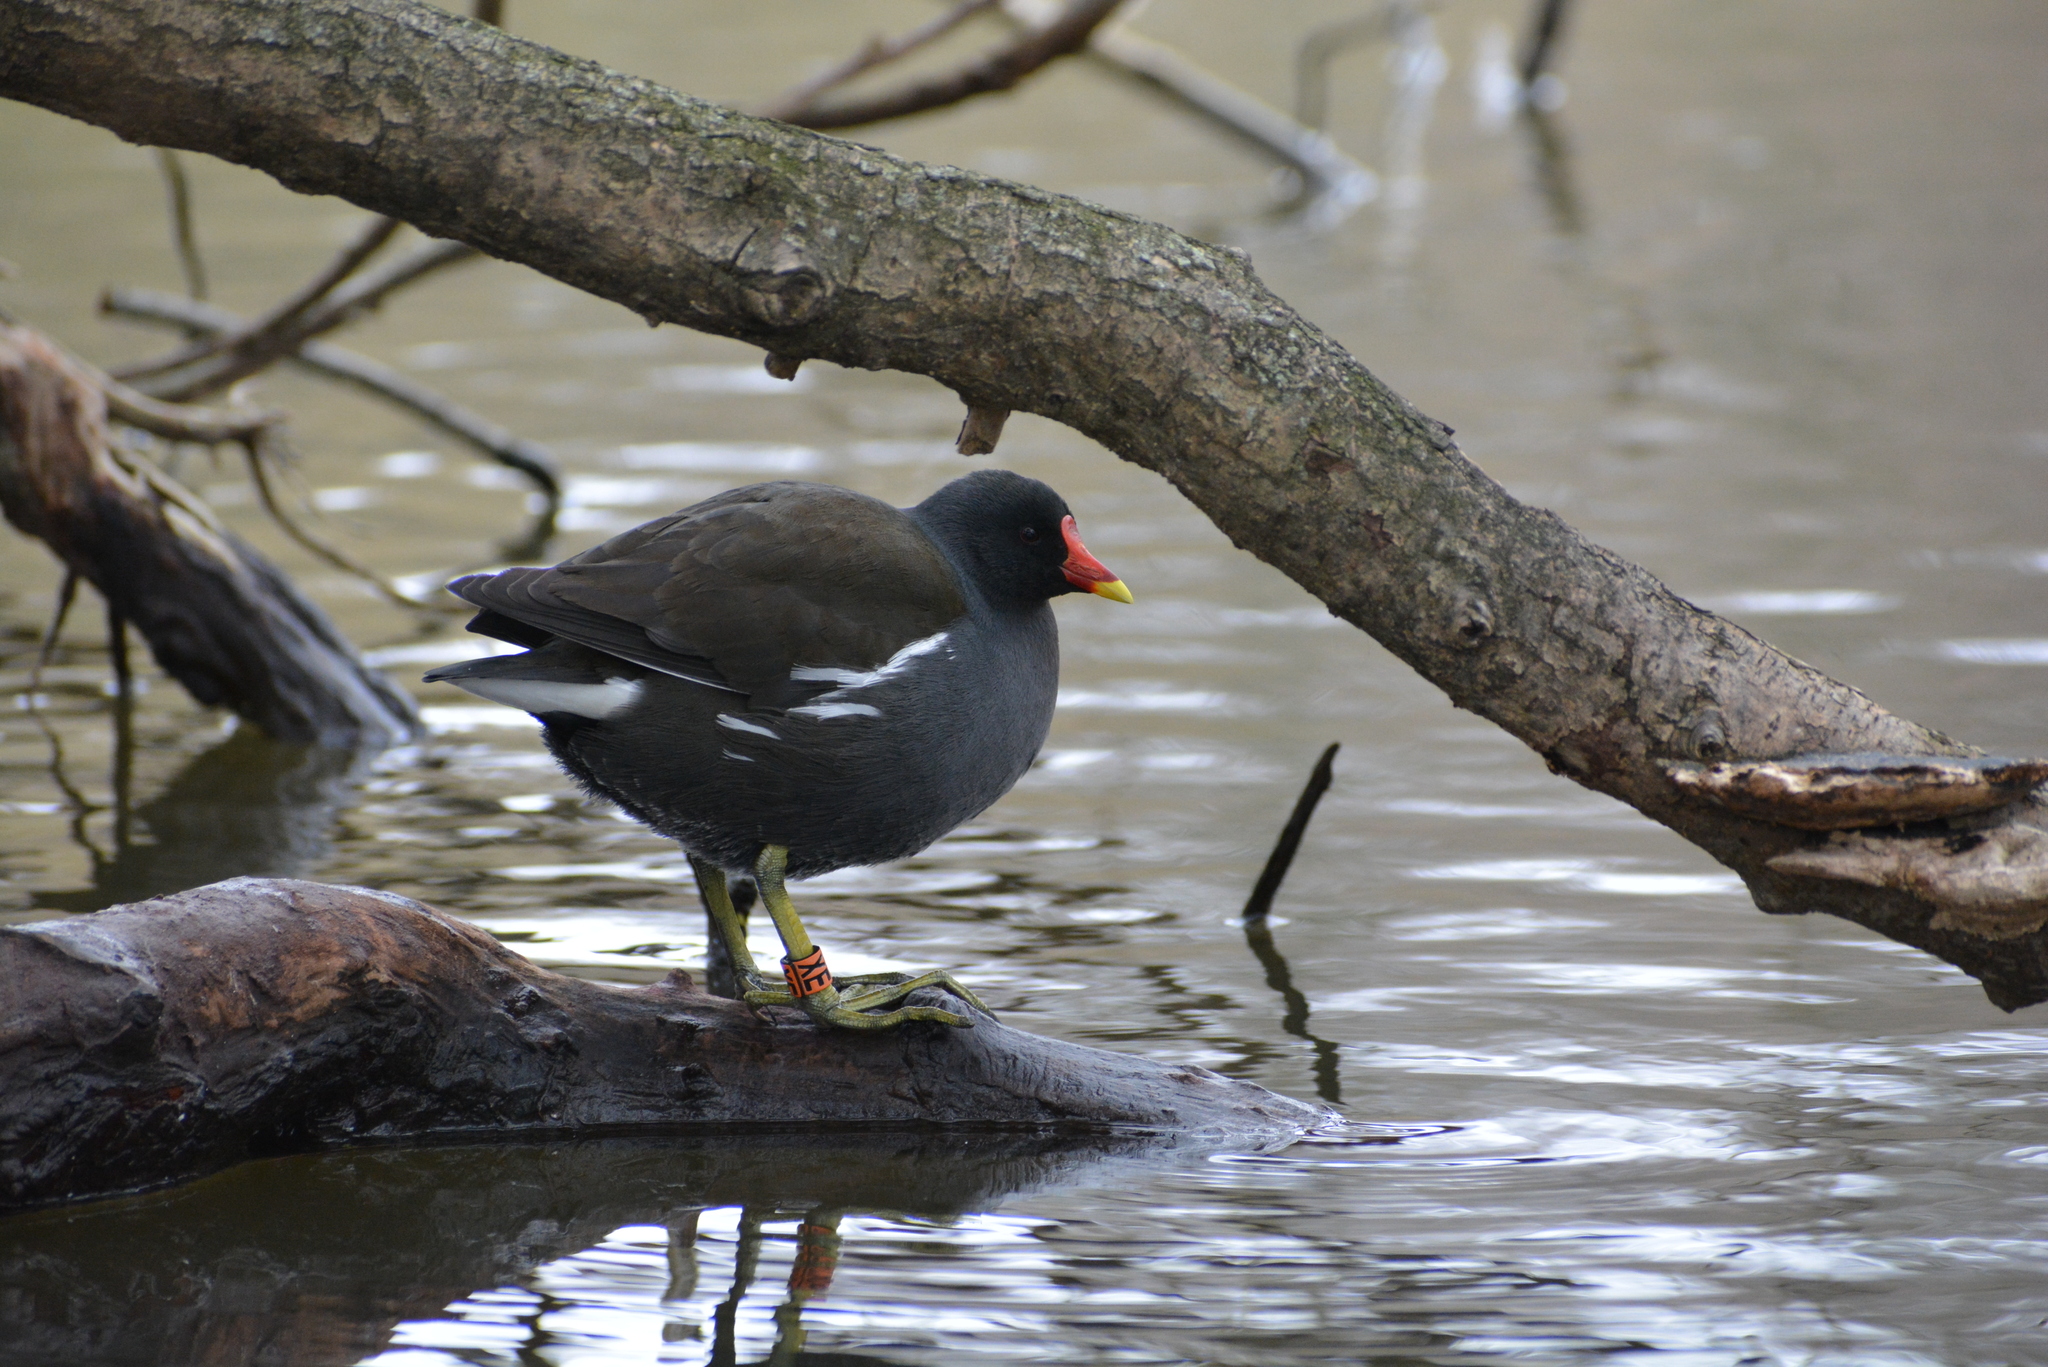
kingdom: Animalia
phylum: Chordata
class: Aves
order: Gruiformes
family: Rallidae
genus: Gallinula
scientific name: Gallinula chloropus
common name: Common moorhen
